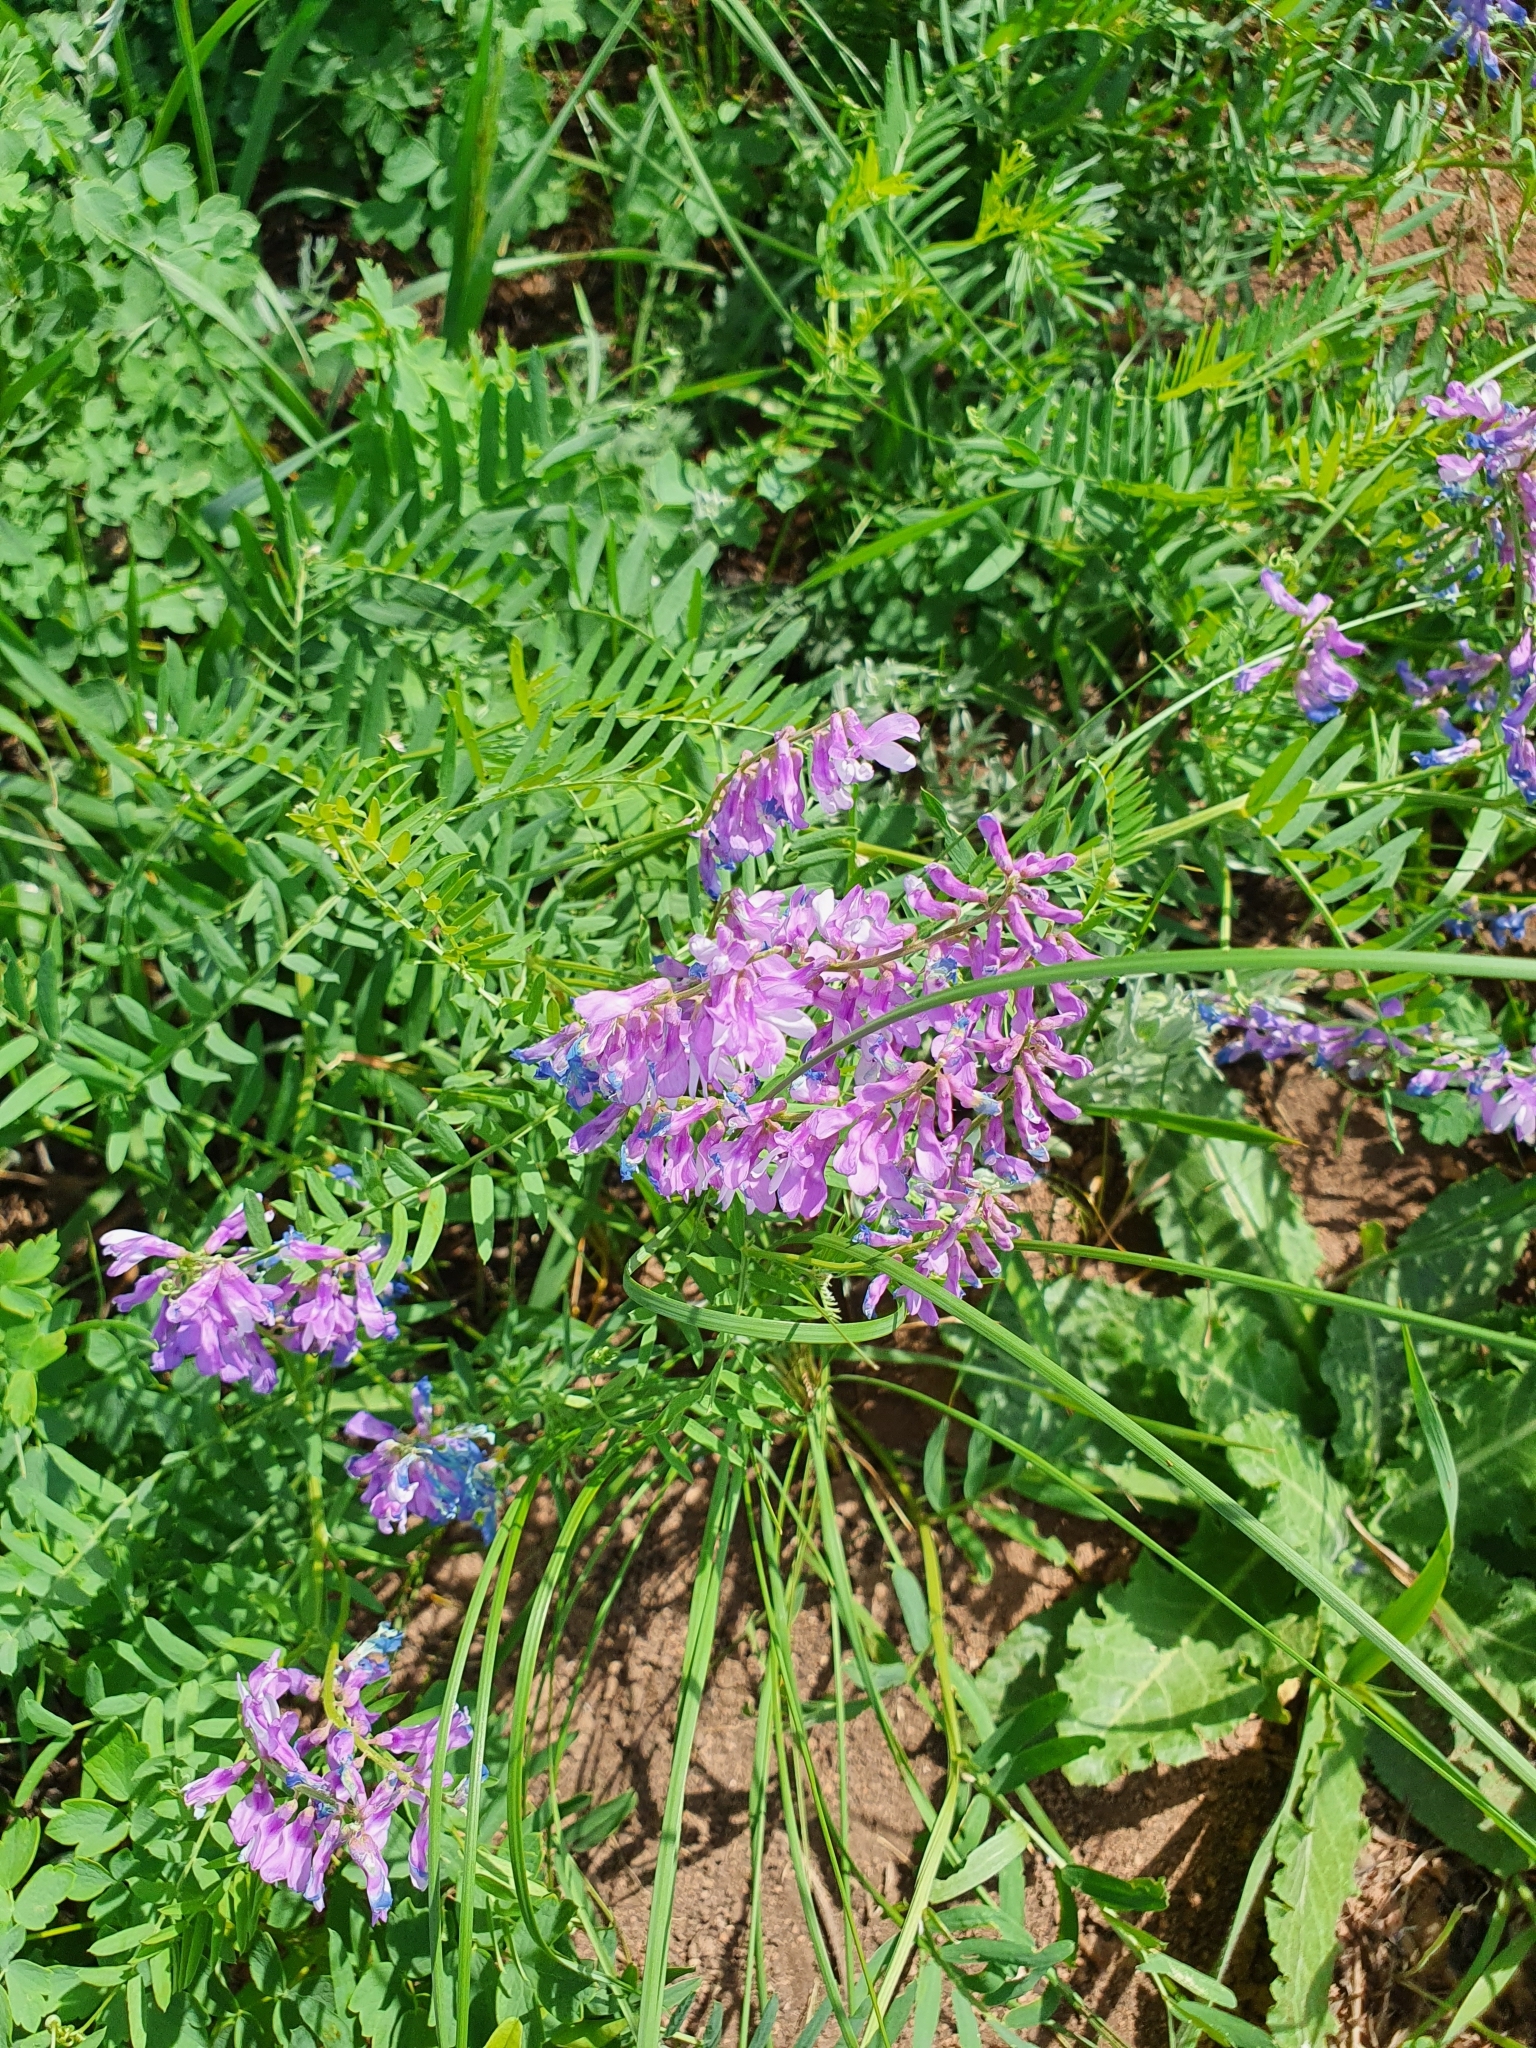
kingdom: Plantae
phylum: Tracheophyta
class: Magnoliopsida
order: Fabales
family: Fabaceae
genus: Vicia
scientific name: Vicia tenuifolia
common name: Fine-leaved vetch
